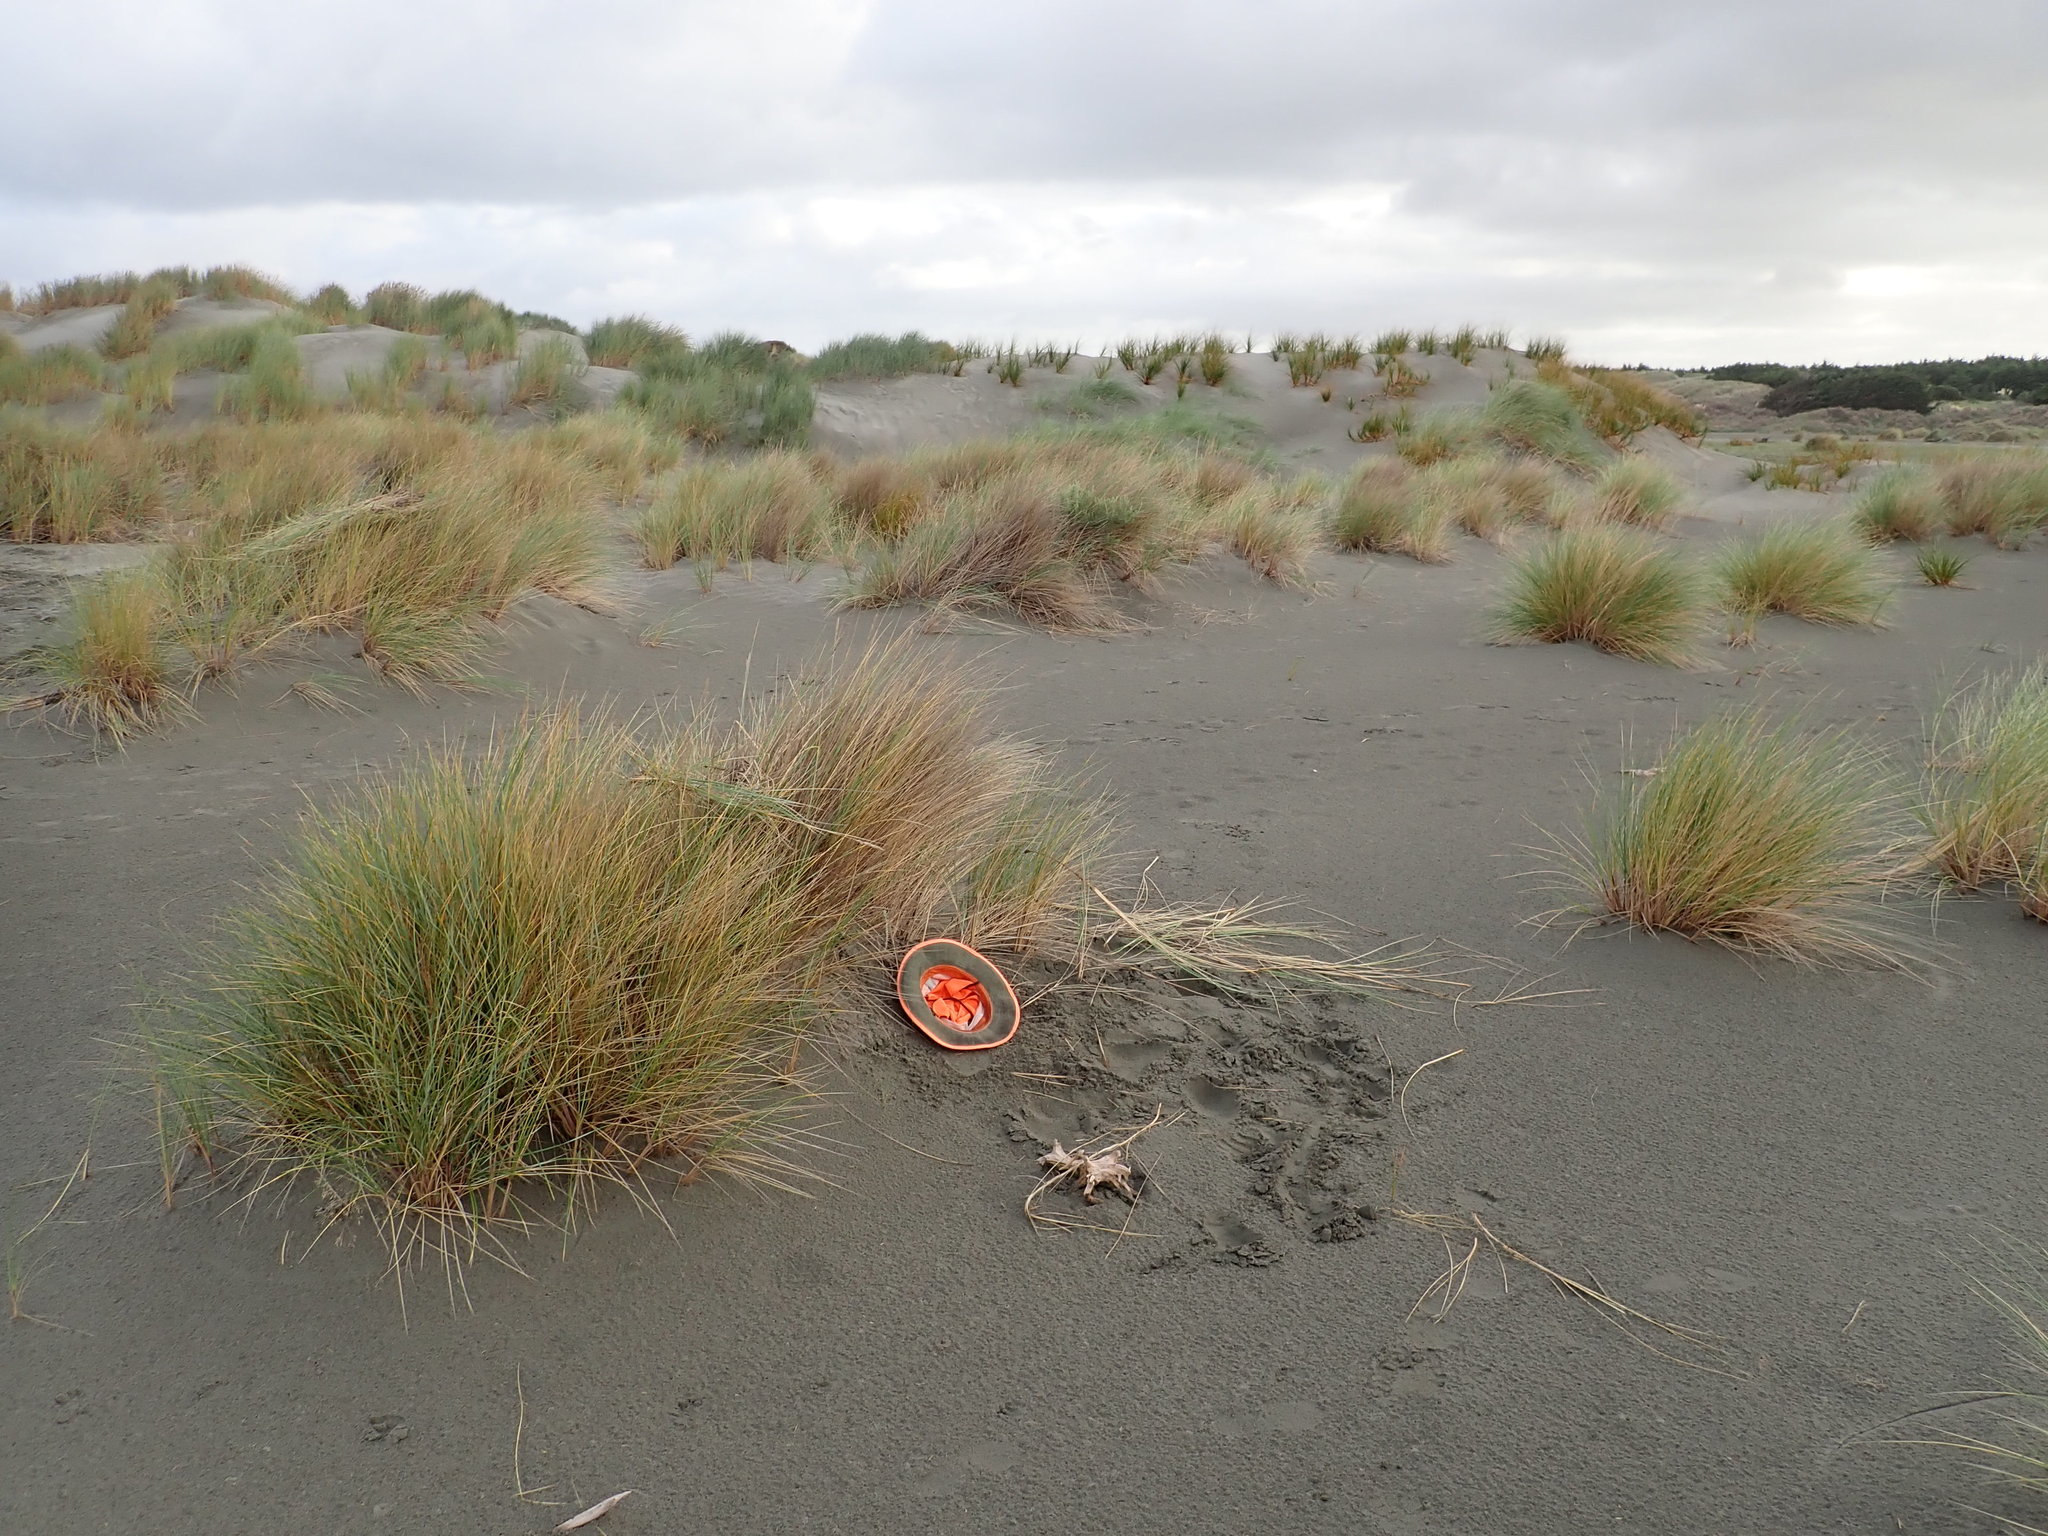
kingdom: Plantae
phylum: Tracheophyta
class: Magnoliopsida
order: Asterales
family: Asteraceae
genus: Ozothamnus
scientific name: Ozothamnus leptophyllus
